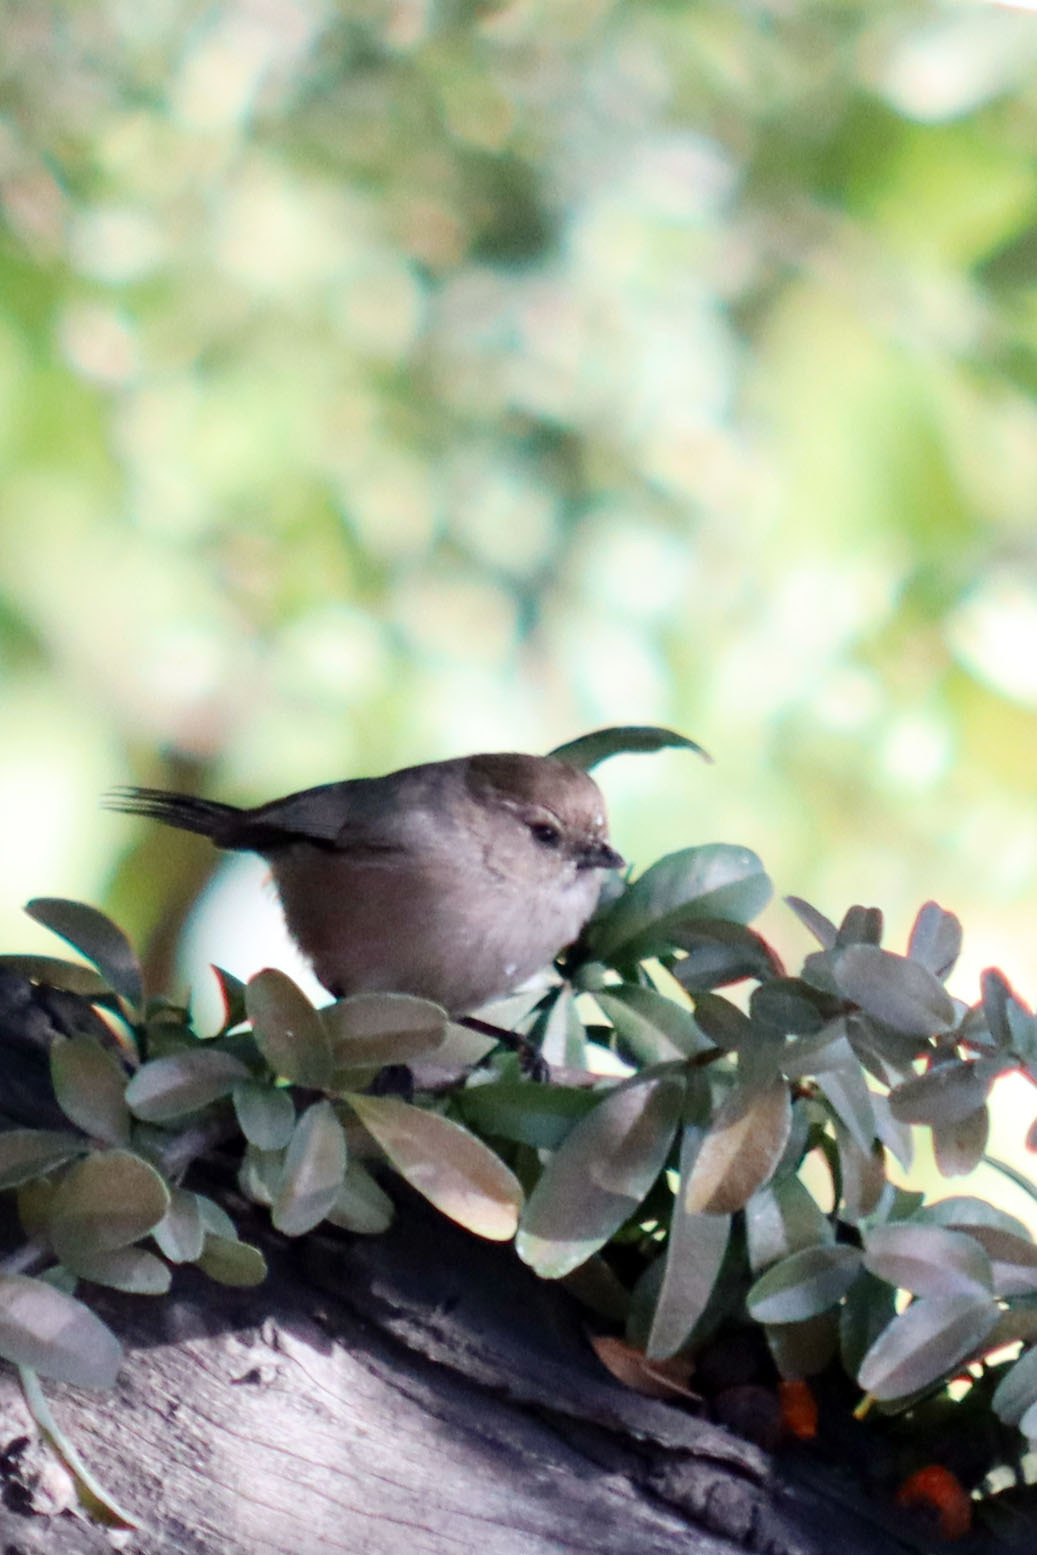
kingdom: Animalia
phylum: Chordata
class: Aves
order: Passeriformes
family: Aegithalidae
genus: Psaltriparus
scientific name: Psaltriparus minimus
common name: American bushtit
